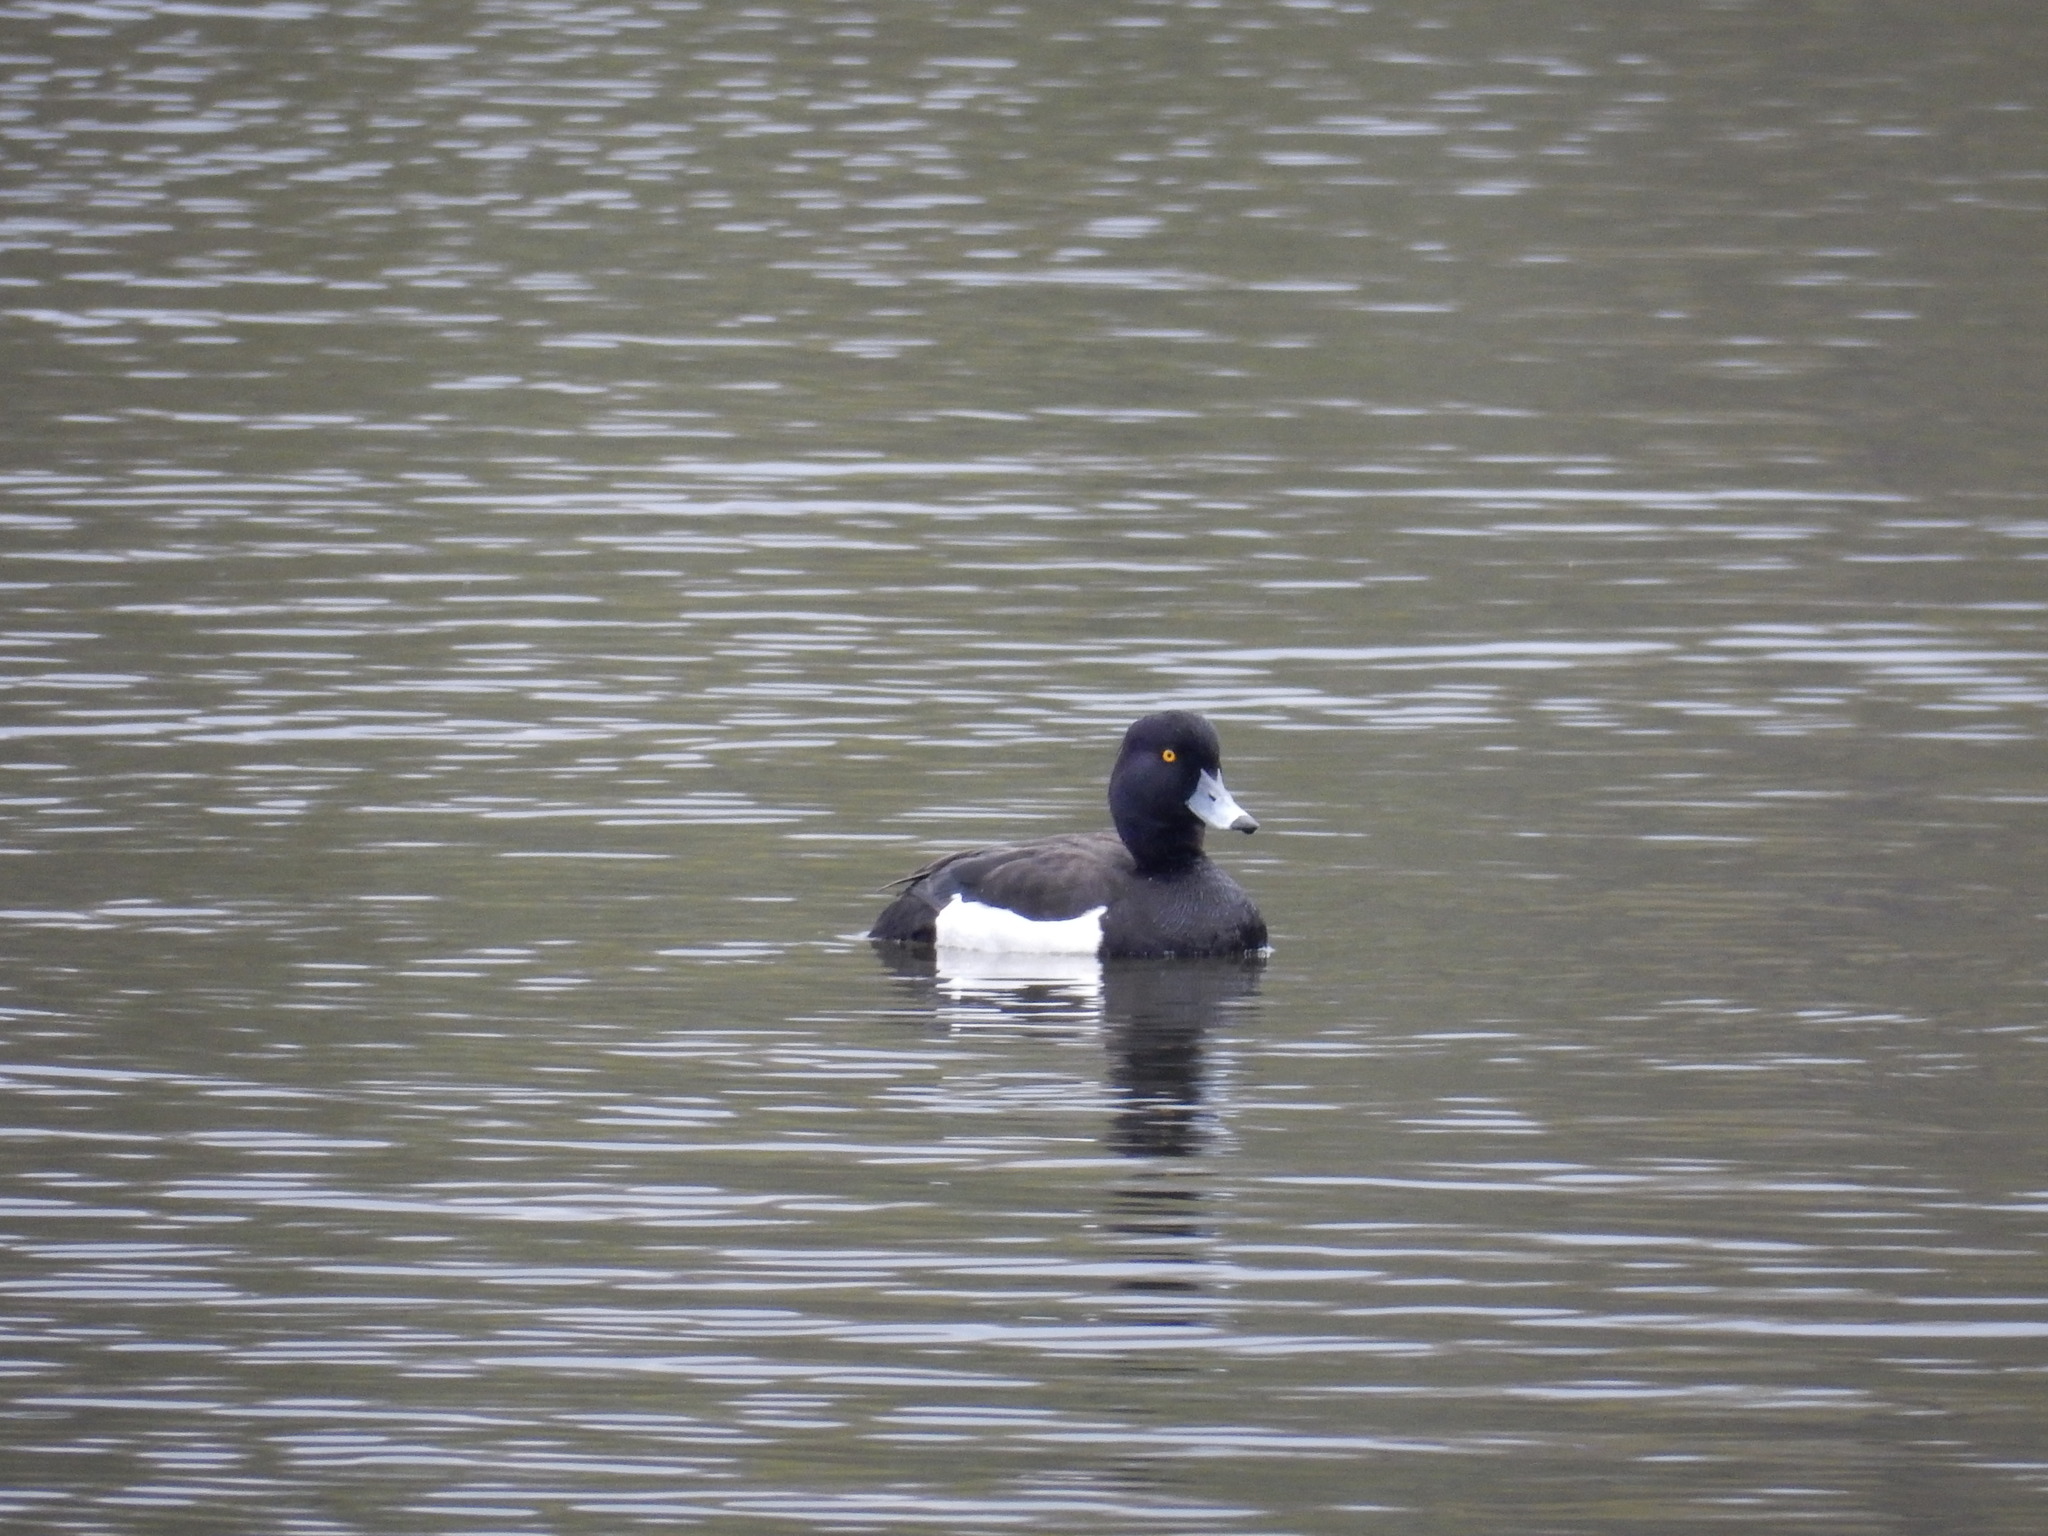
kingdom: Animalia
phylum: Chordata
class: Aves
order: Anseriformes
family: Anatidae
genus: Aythya
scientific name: Aythya fuligula
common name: Tufted duck
